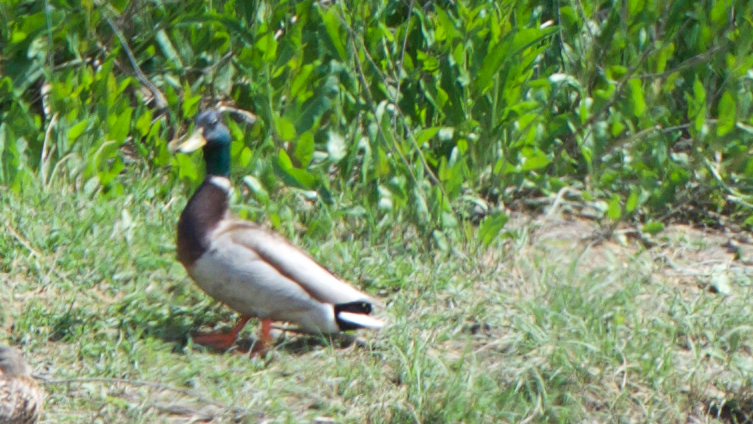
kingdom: Animalia
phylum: Chordata
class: Aves
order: Anseriformes
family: Anatidae
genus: Anas
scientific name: Anas platyrhynchos
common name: Mallard
